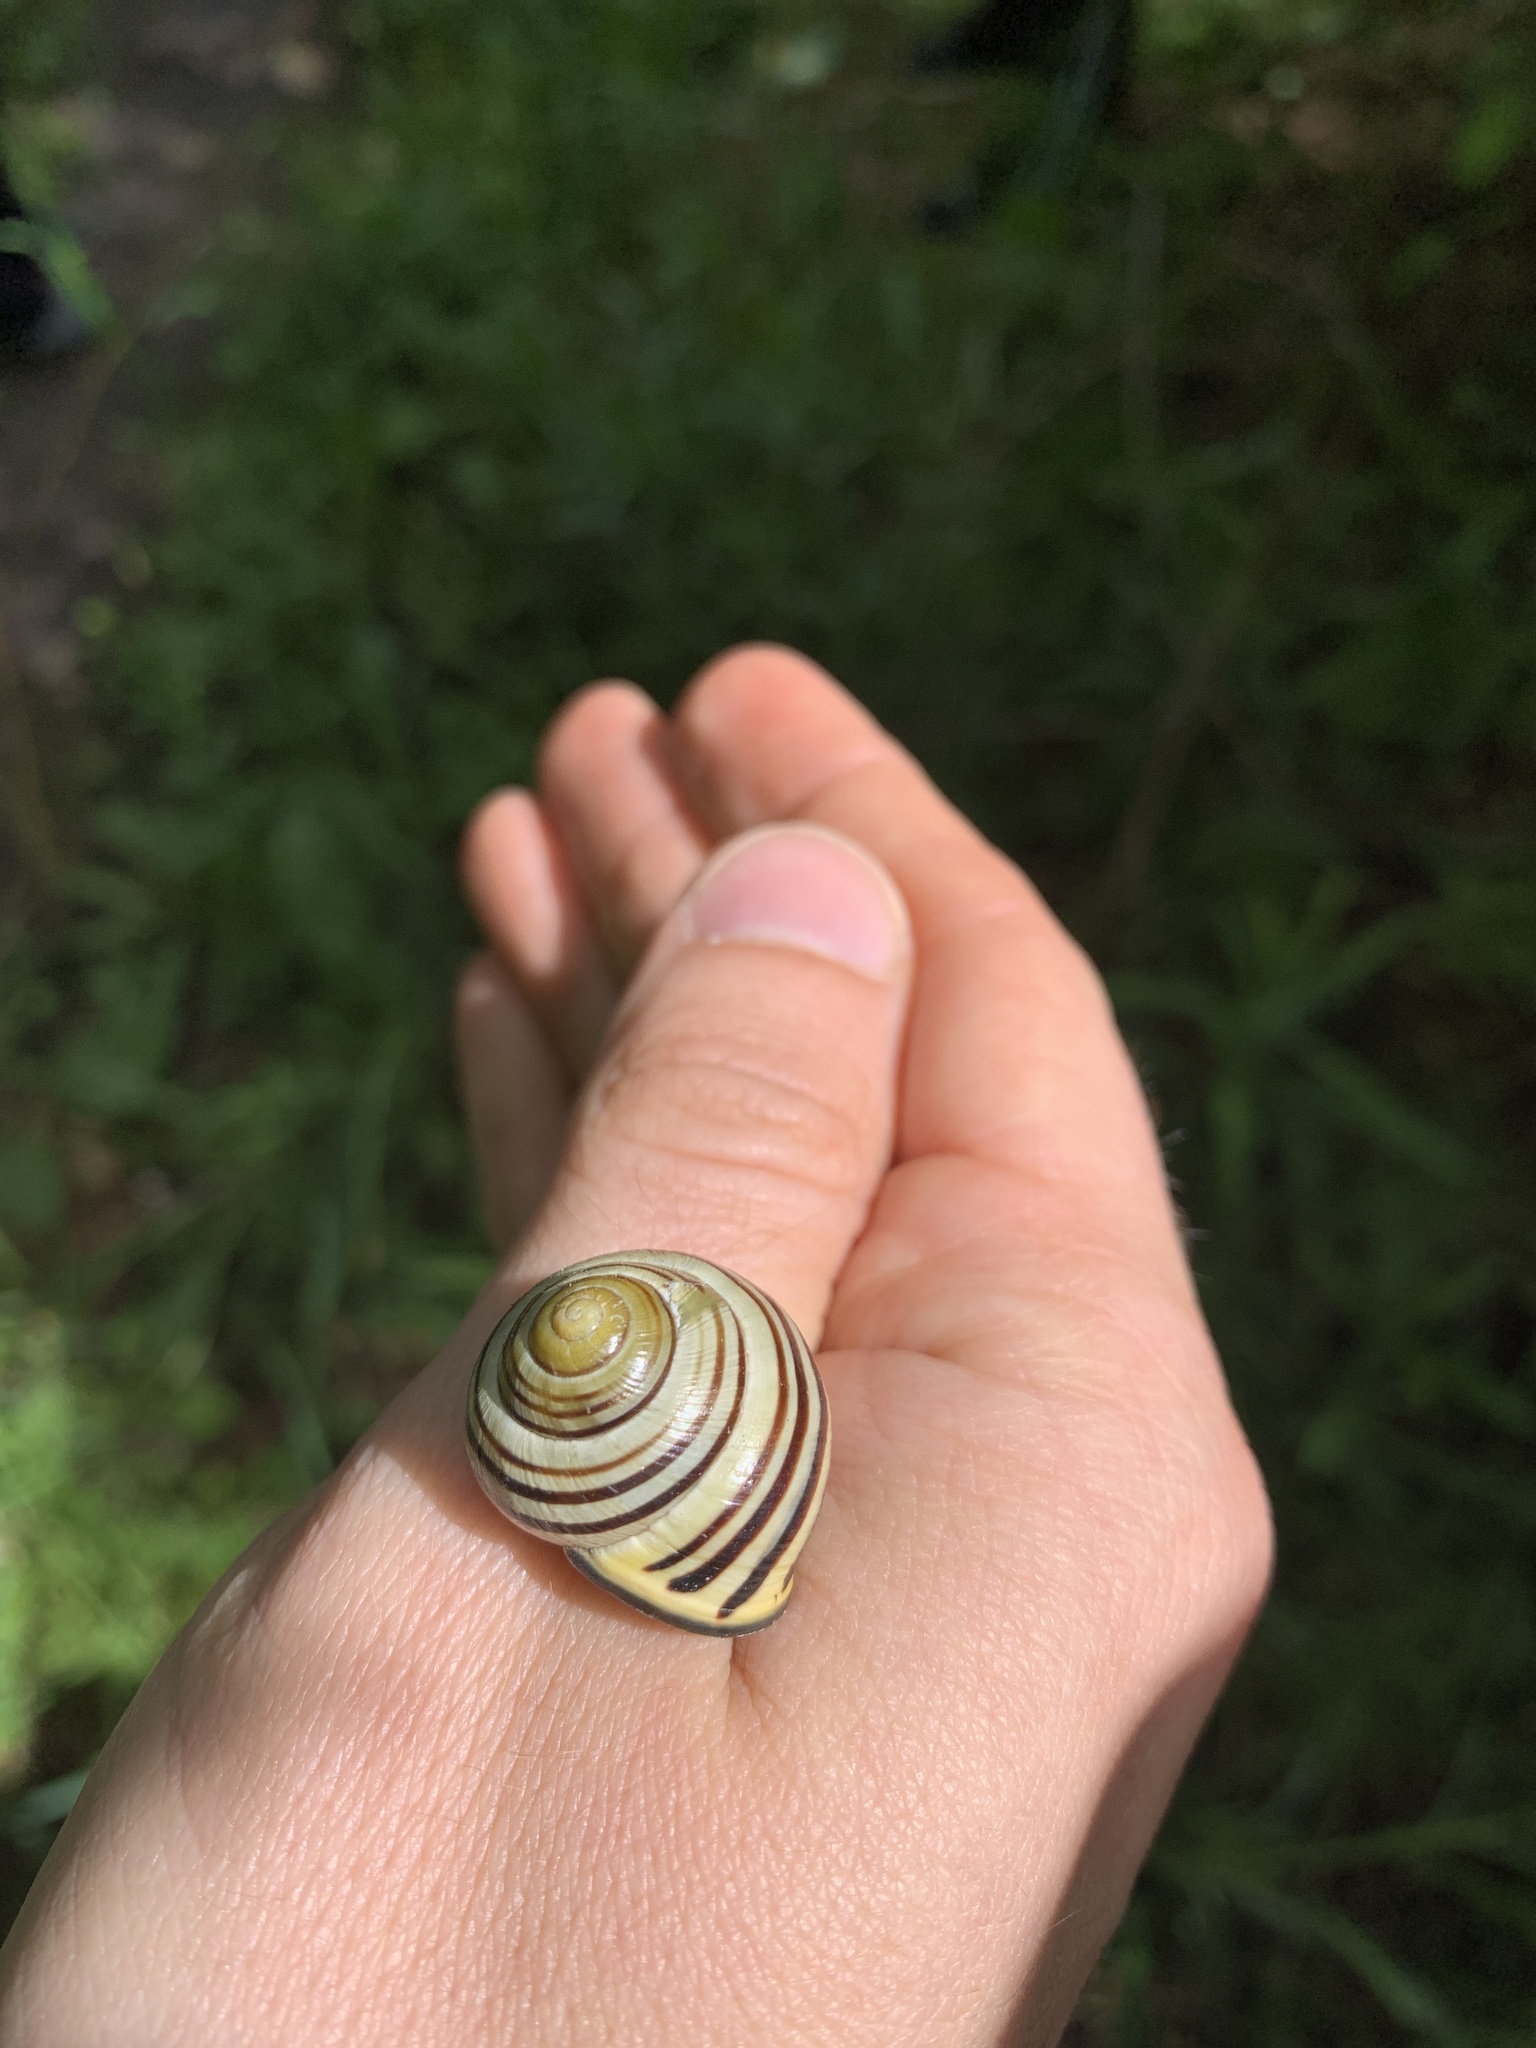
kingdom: Animalia
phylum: Mollusca
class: Gastropoda
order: Stylommatophora
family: Helicidae
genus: Cepaea
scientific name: Cepaea nemoralis
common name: Grovesnail
